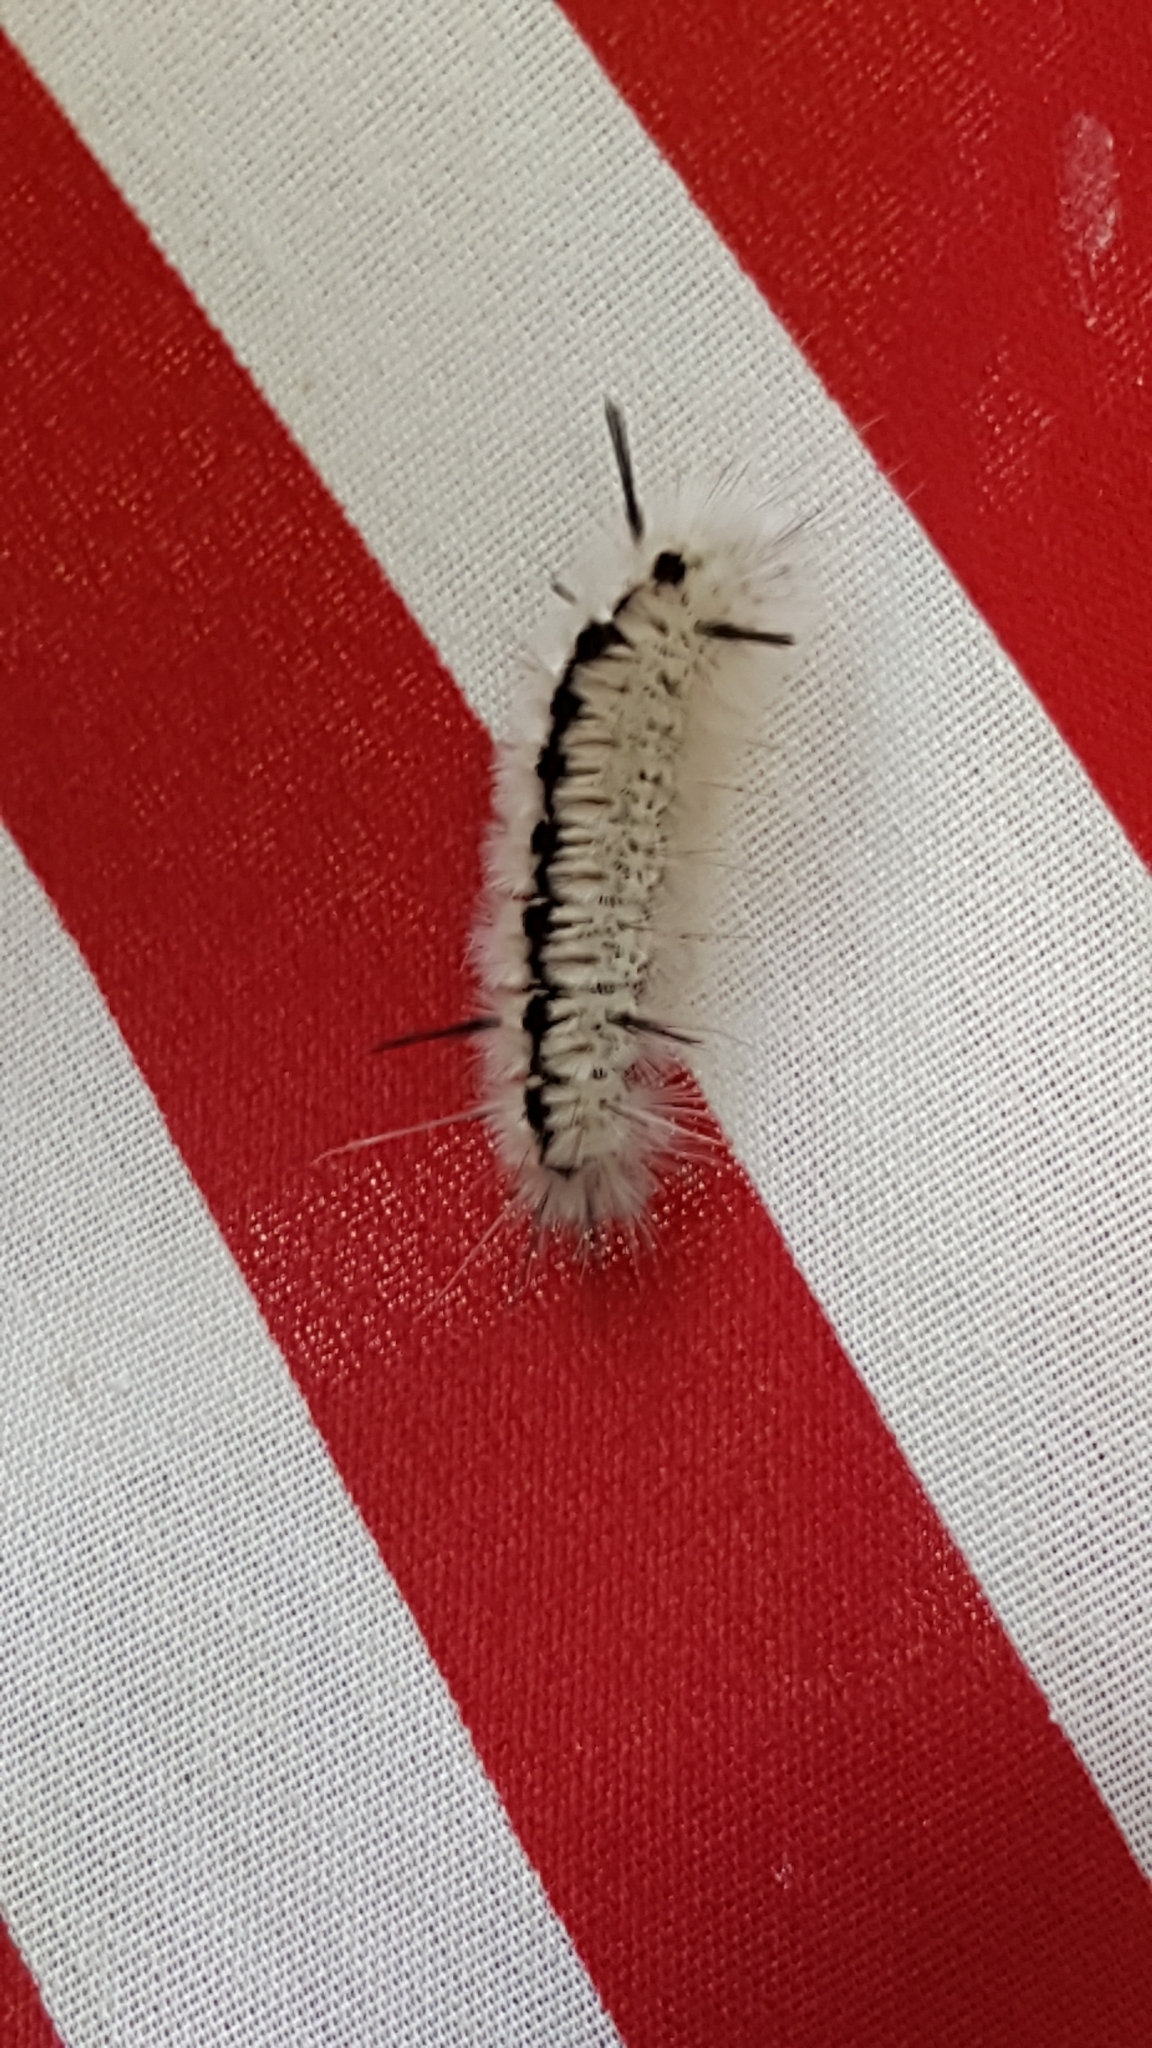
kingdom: Animalia
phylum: Arthropoda
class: Insecta
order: Lepidoptera
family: Erebidae
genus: Lophocampa
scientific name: Lophocampa caryae
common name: Hickory tussock moth
